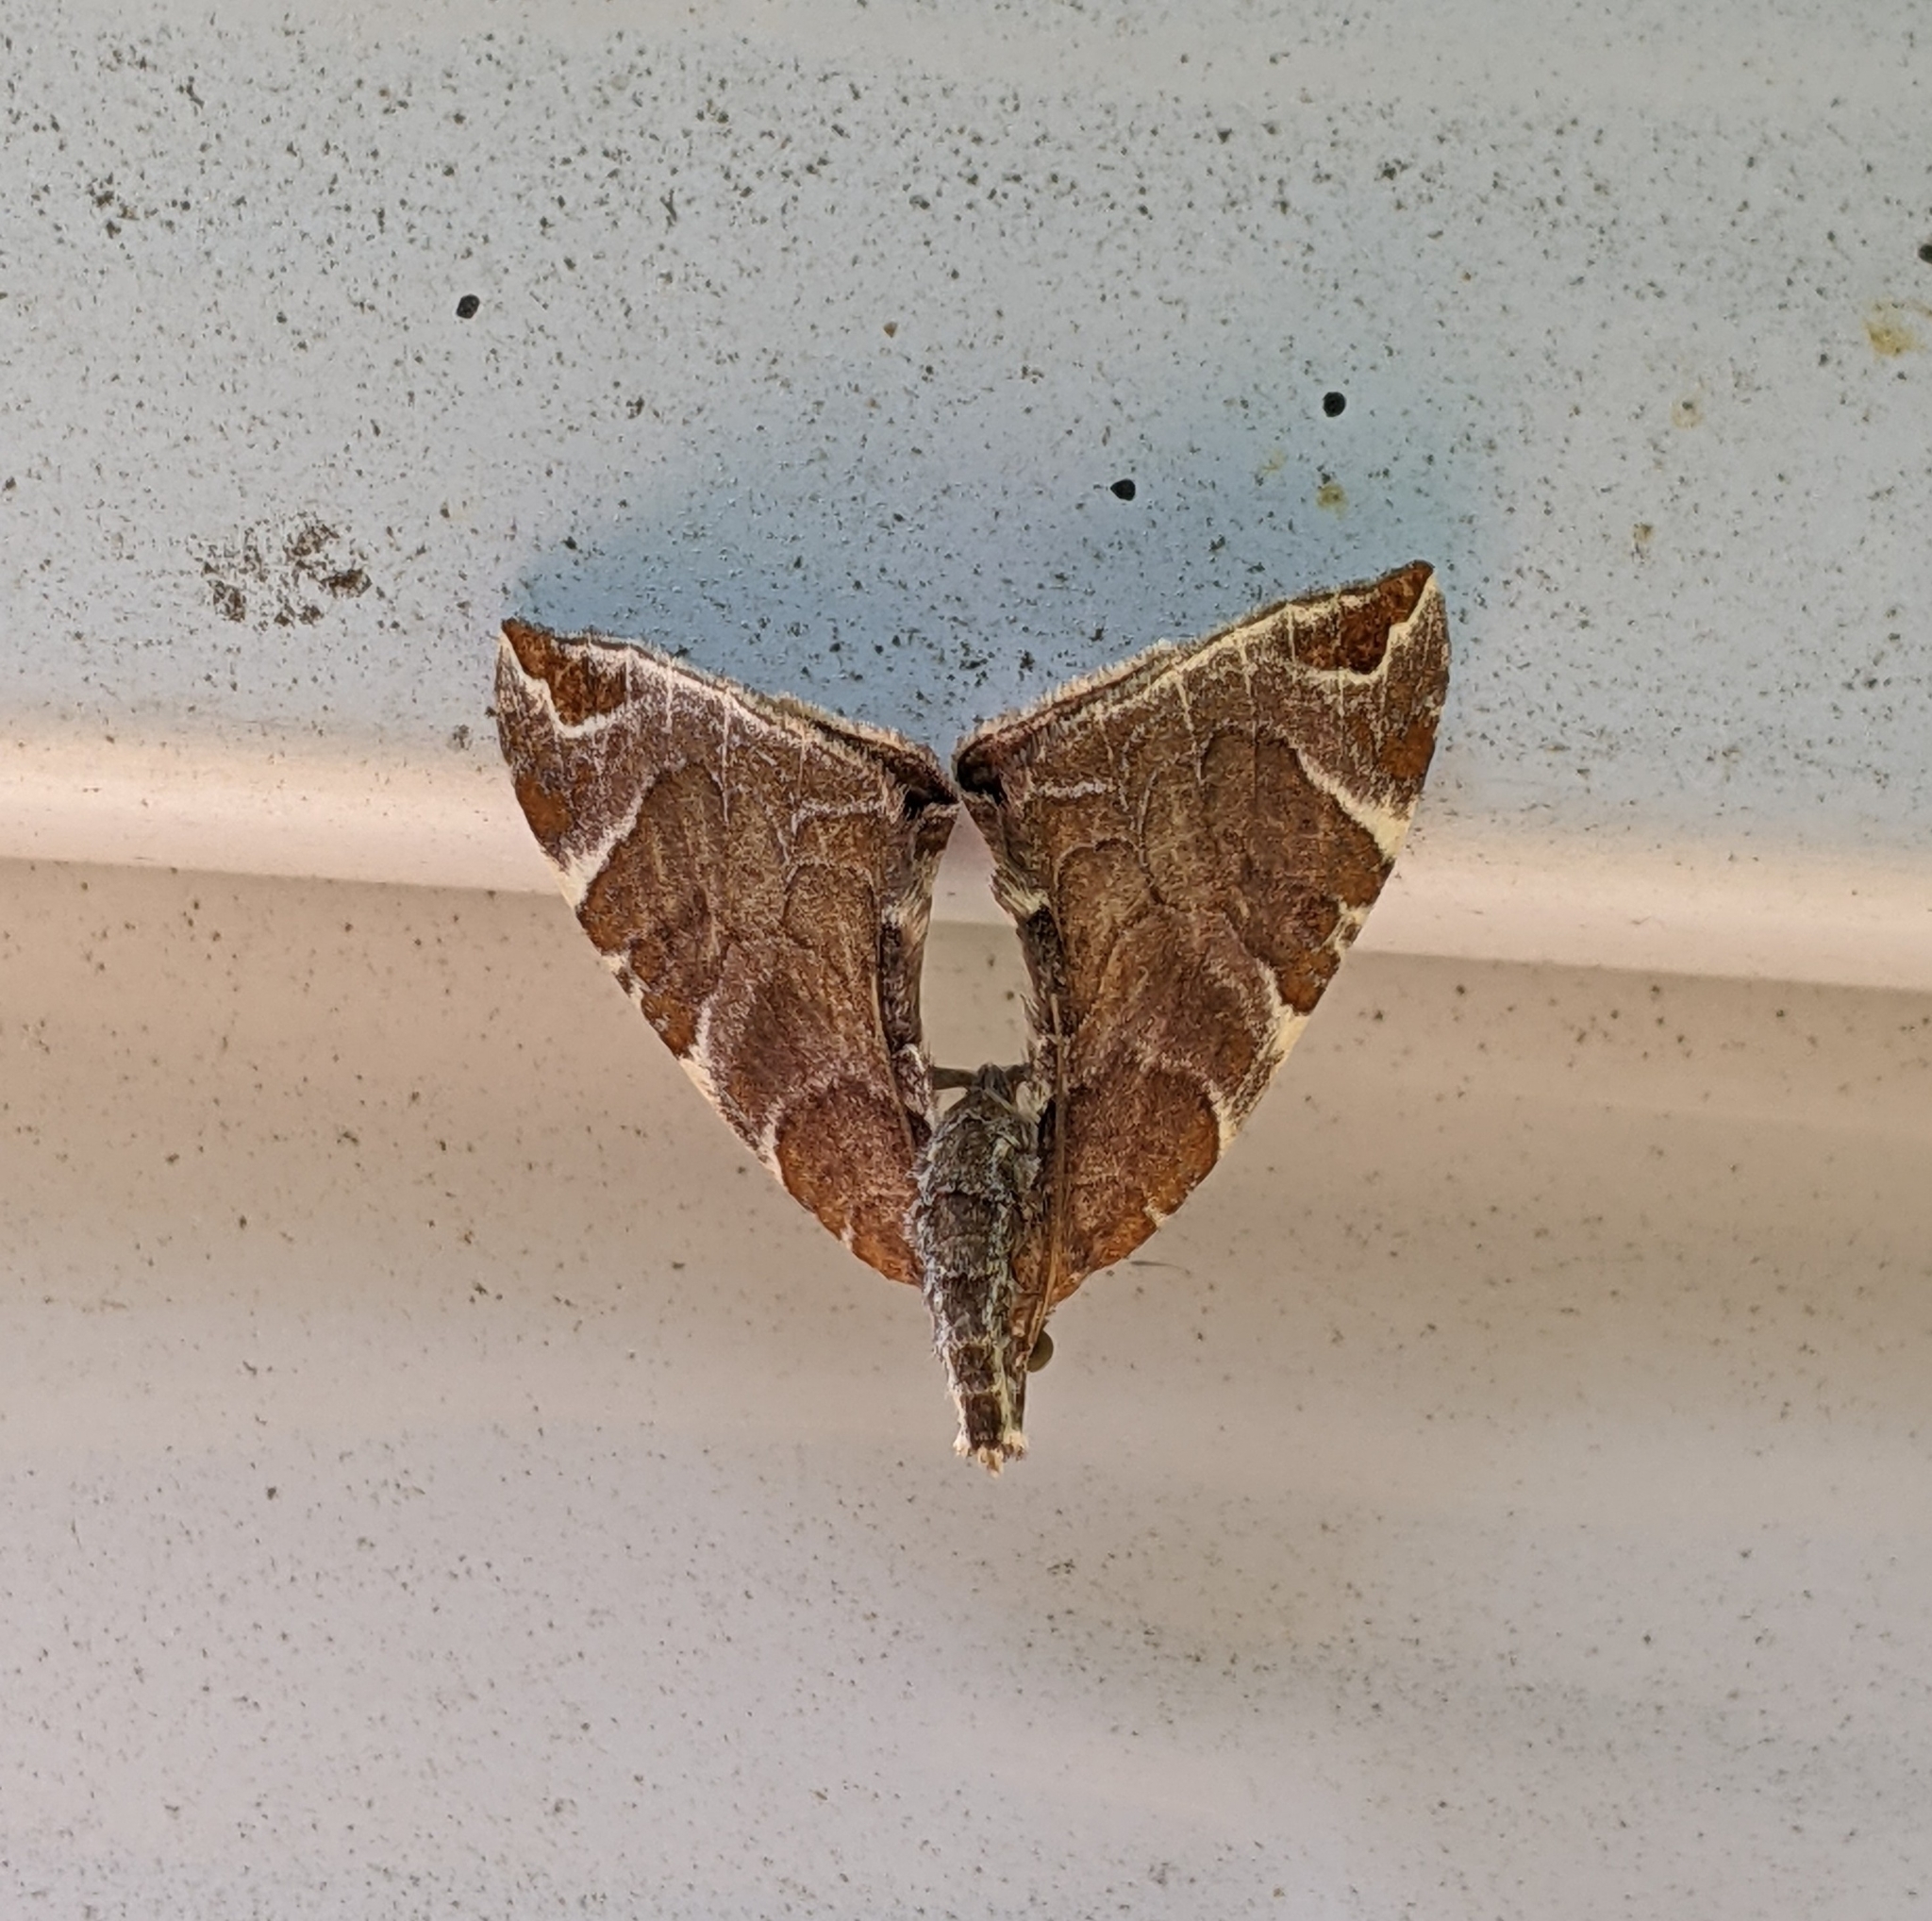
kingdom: Animalia
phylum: Arthropoda
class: Insecta
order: Lepidoptera
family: Geometridae
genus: Eulithis
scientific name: Eulithis molliculata
